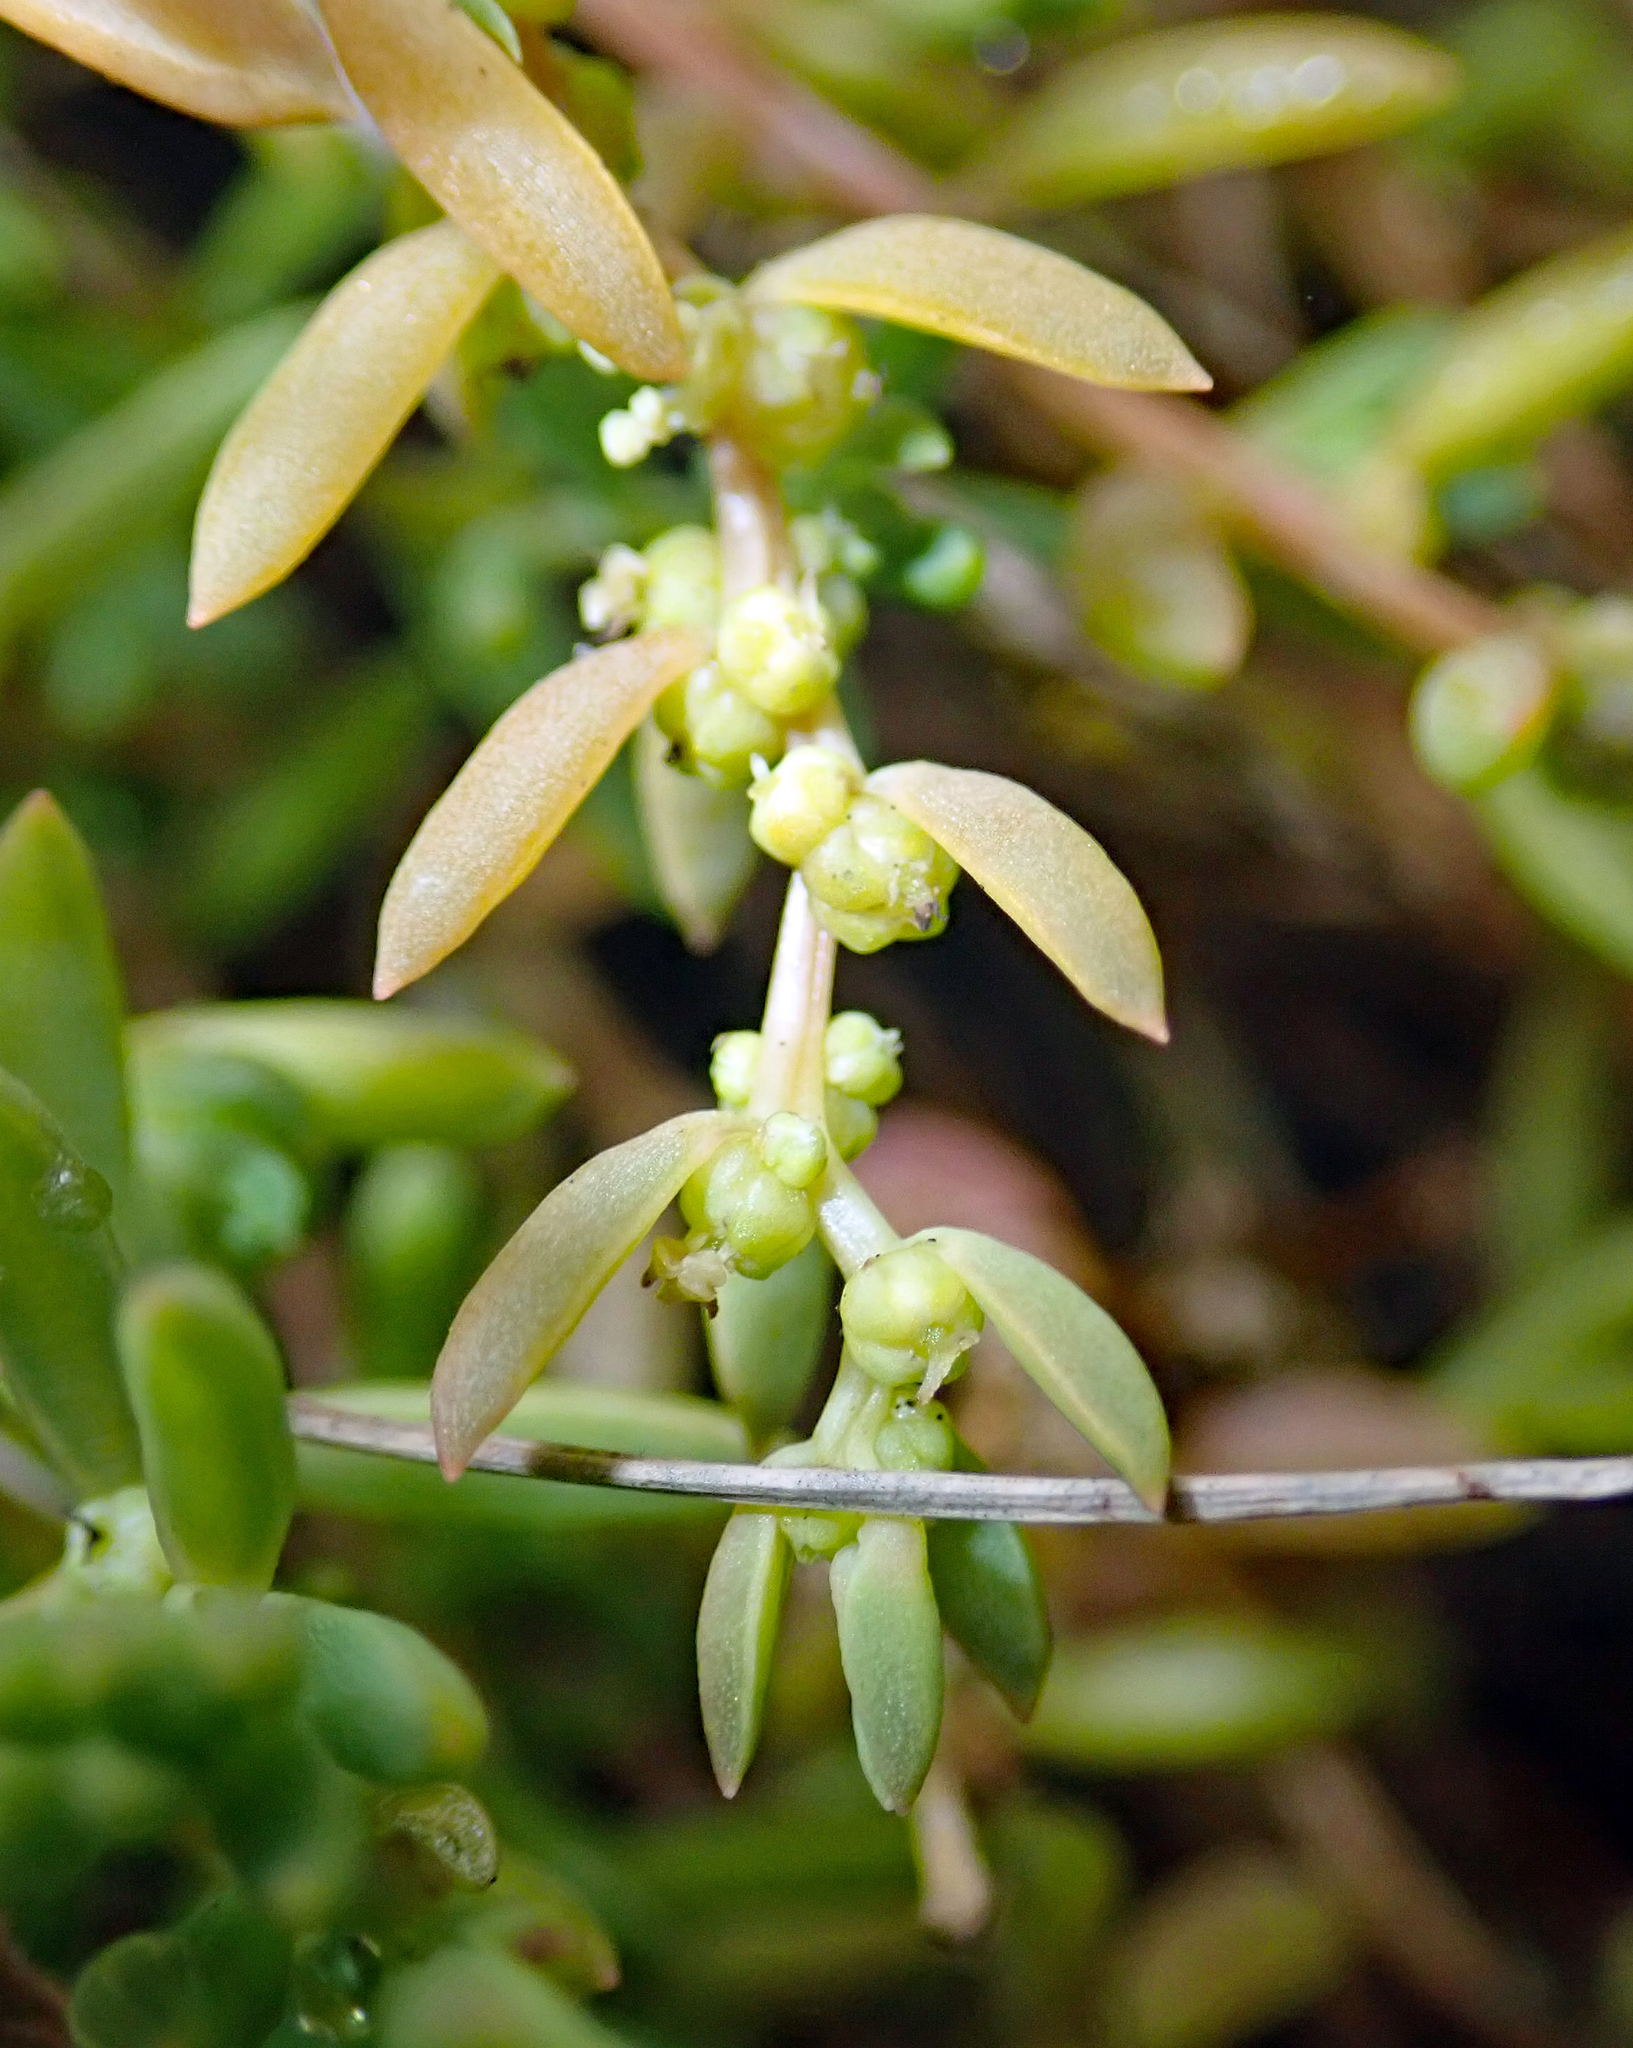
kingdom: Plantae
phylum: Tracheophyta
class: Magnoliopsida
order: Caryophyllales
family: Amaranthaceae
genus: Suaeda
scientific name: Suaeda novae-zelandiae
